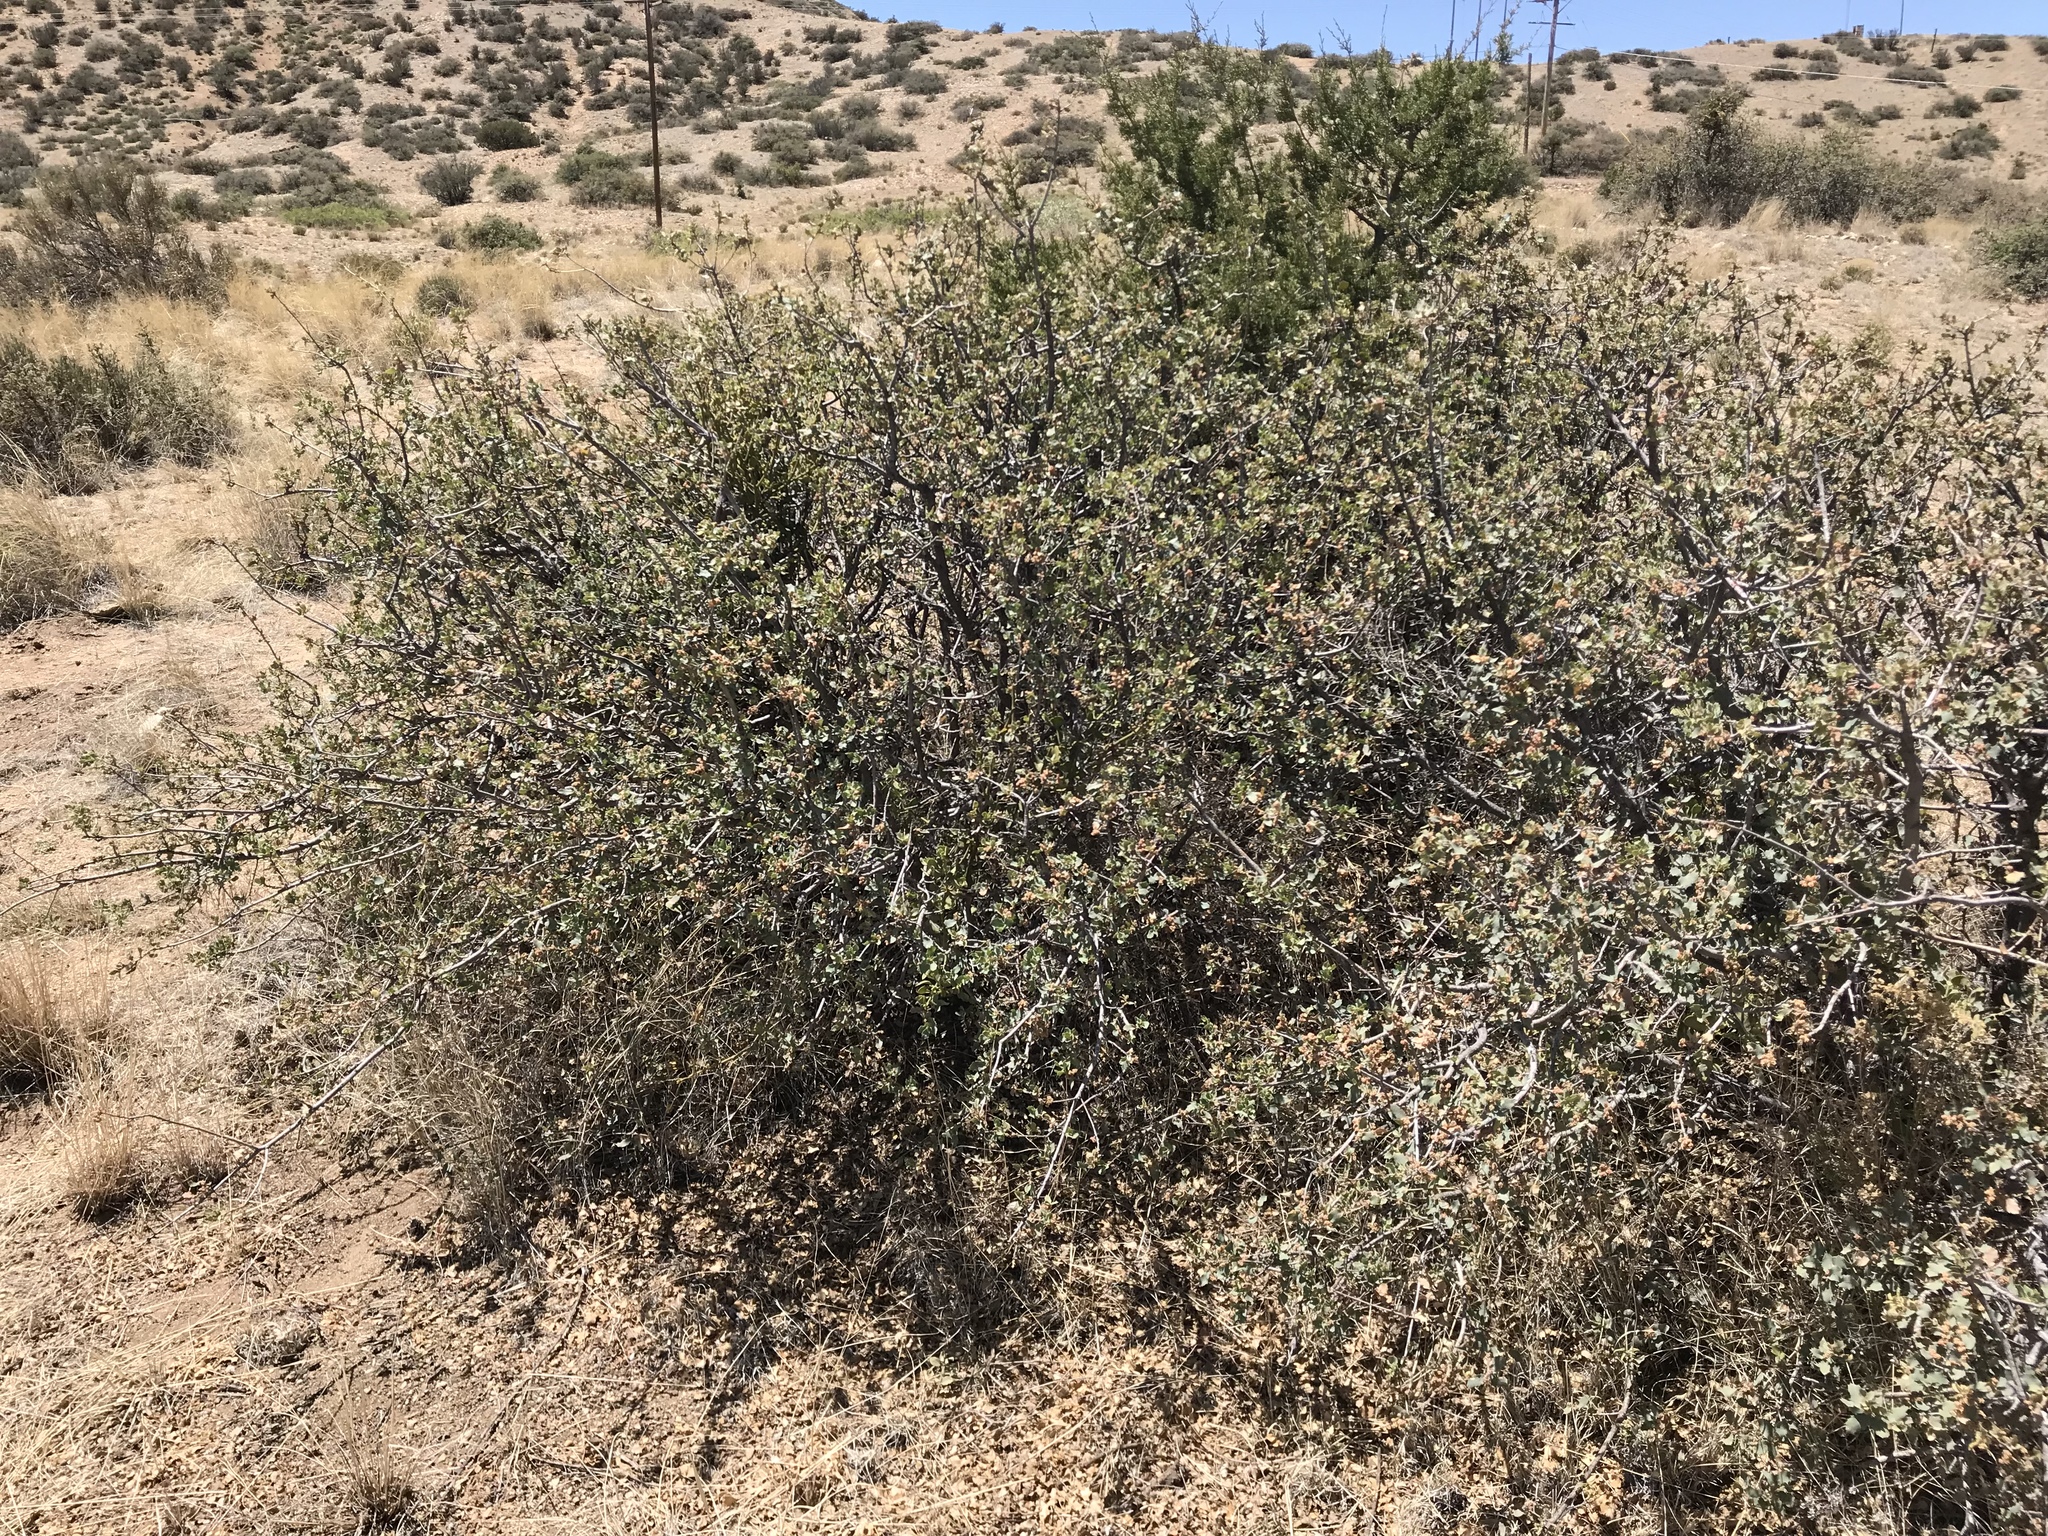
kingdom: Plantae
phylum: Tracheophyta
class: Magnoliopsida
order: Fagales
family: Fagaceae
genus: Quercus
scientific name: Quercus turbinella
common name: Sonoran scrub oak
